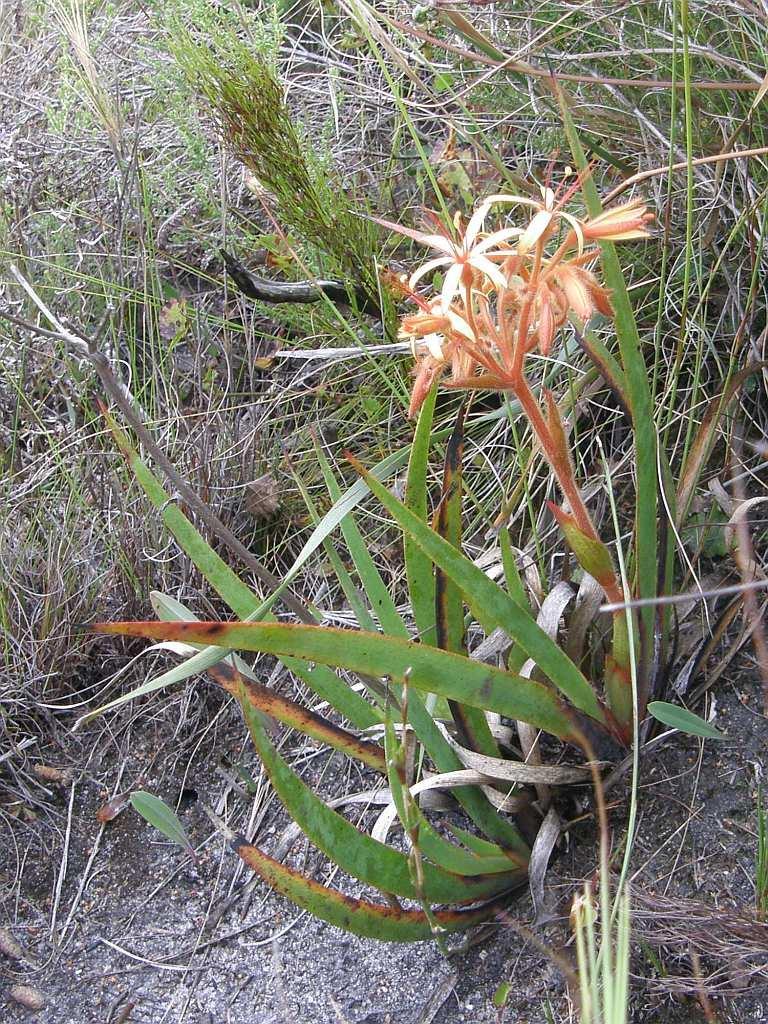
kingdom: Plantae
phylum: Tracheophyta
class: Liliopsida
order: Commelinales
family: Haemodoraceae
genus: Dilatris
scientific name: Dilatris viscosa
